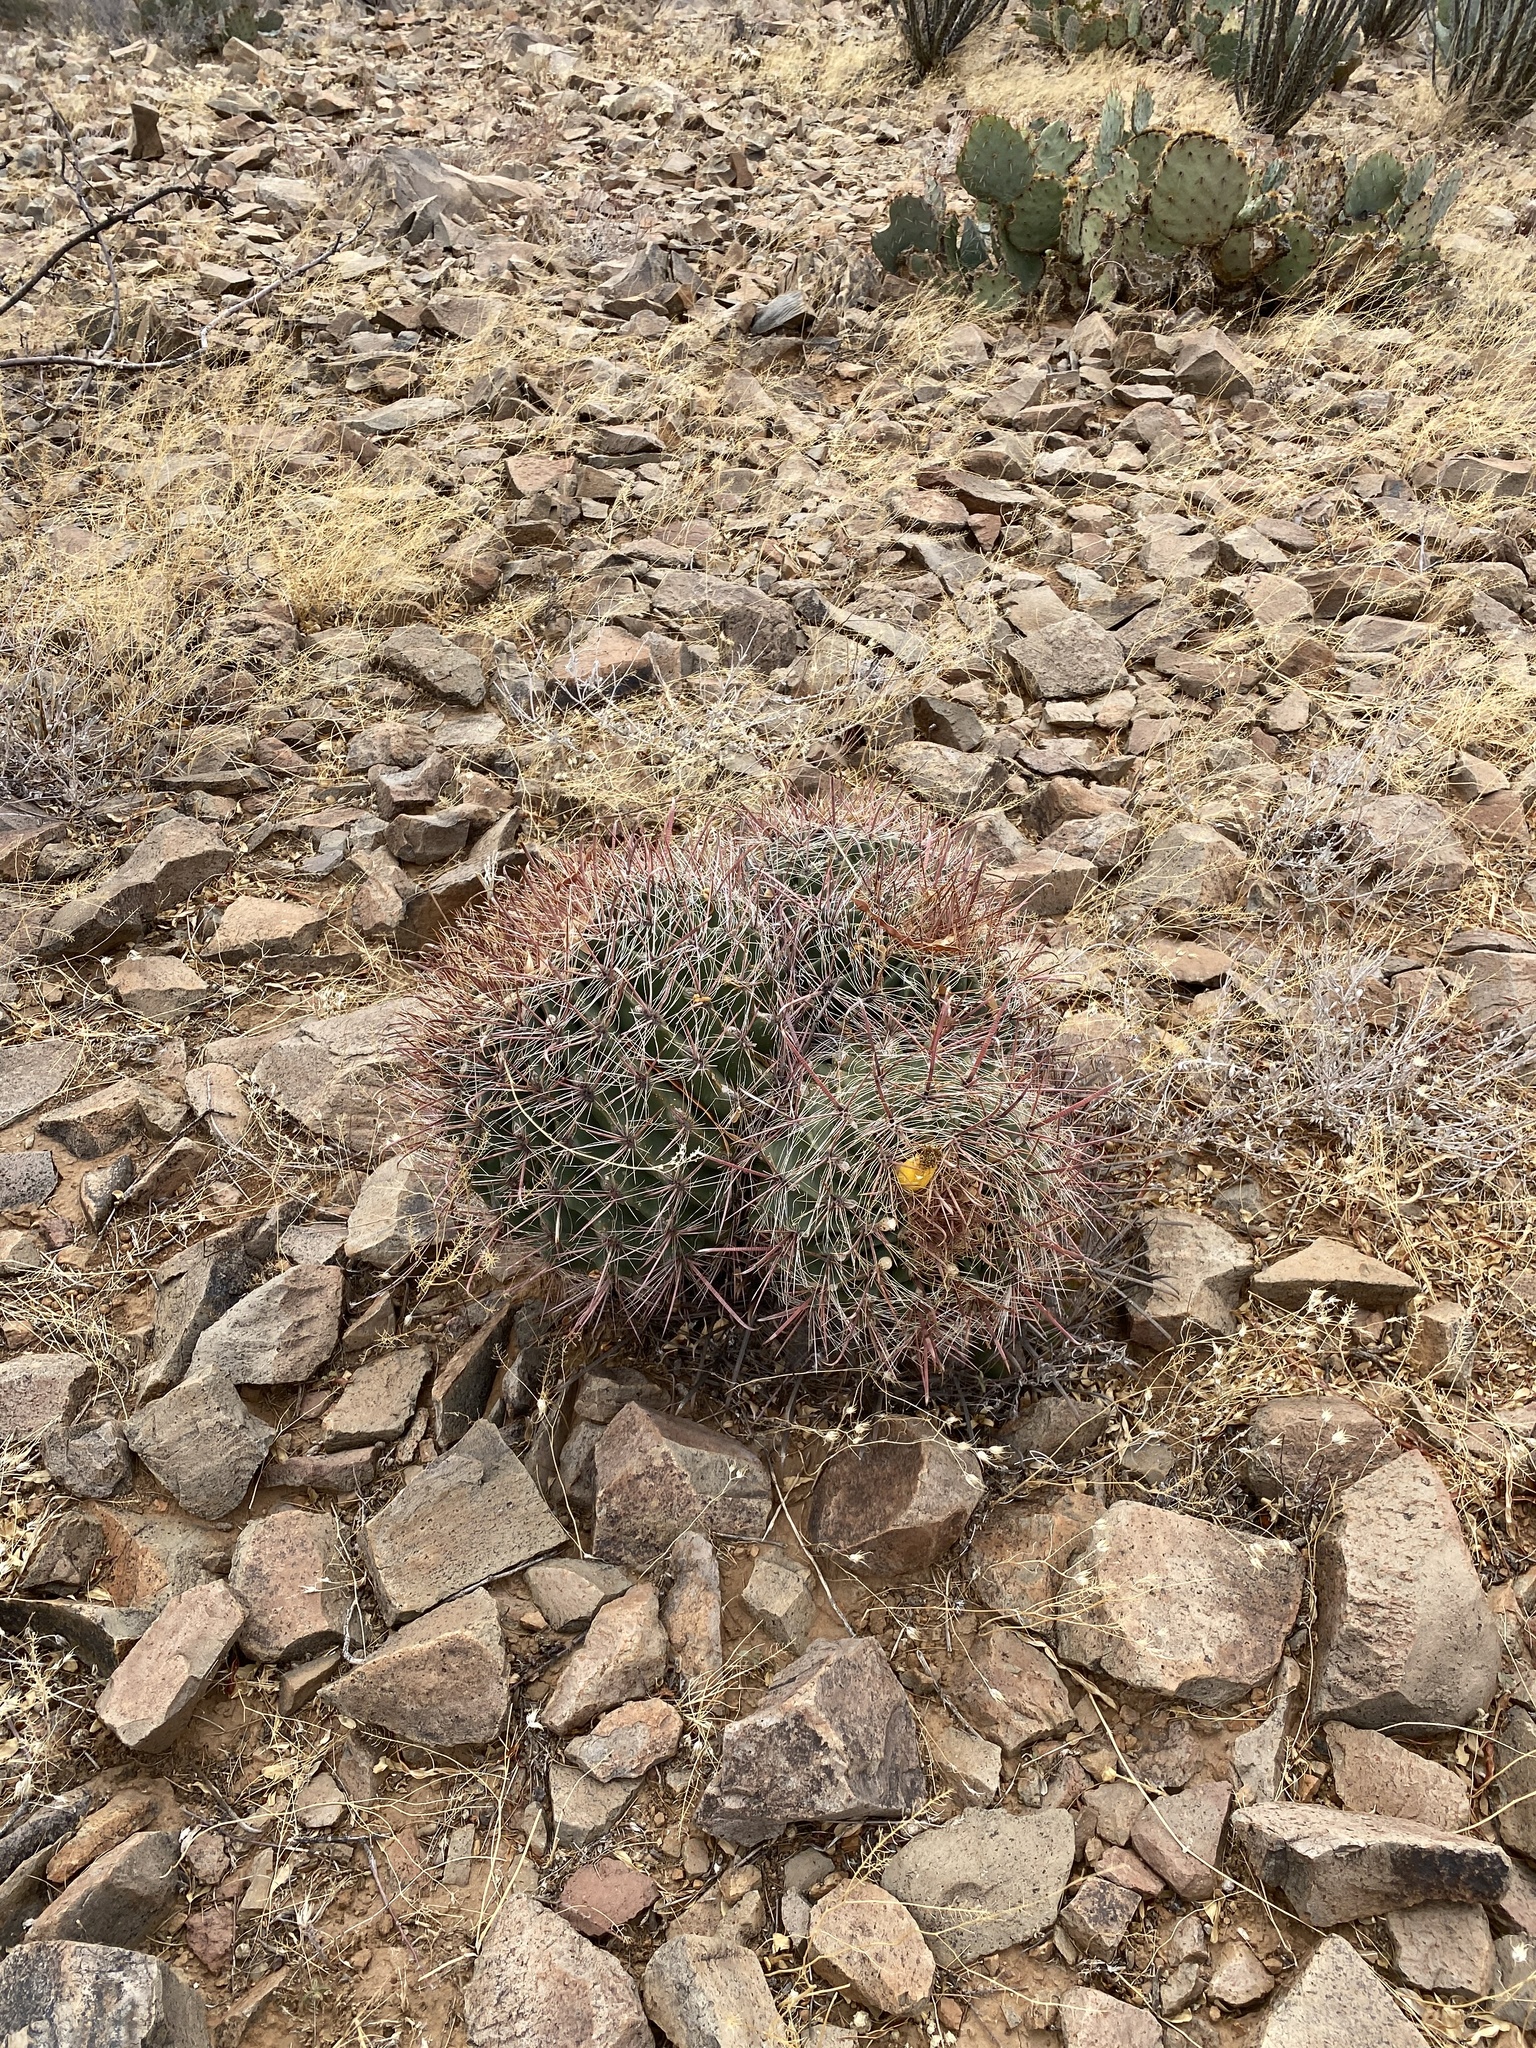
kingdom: Plantae
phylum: Tracheophyta
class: Magnoliopsida
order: Caryophyllales
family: Cactaceae
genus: Ferocactus
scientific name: Ferocactus wislizeni
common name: Candy barrel cactus
